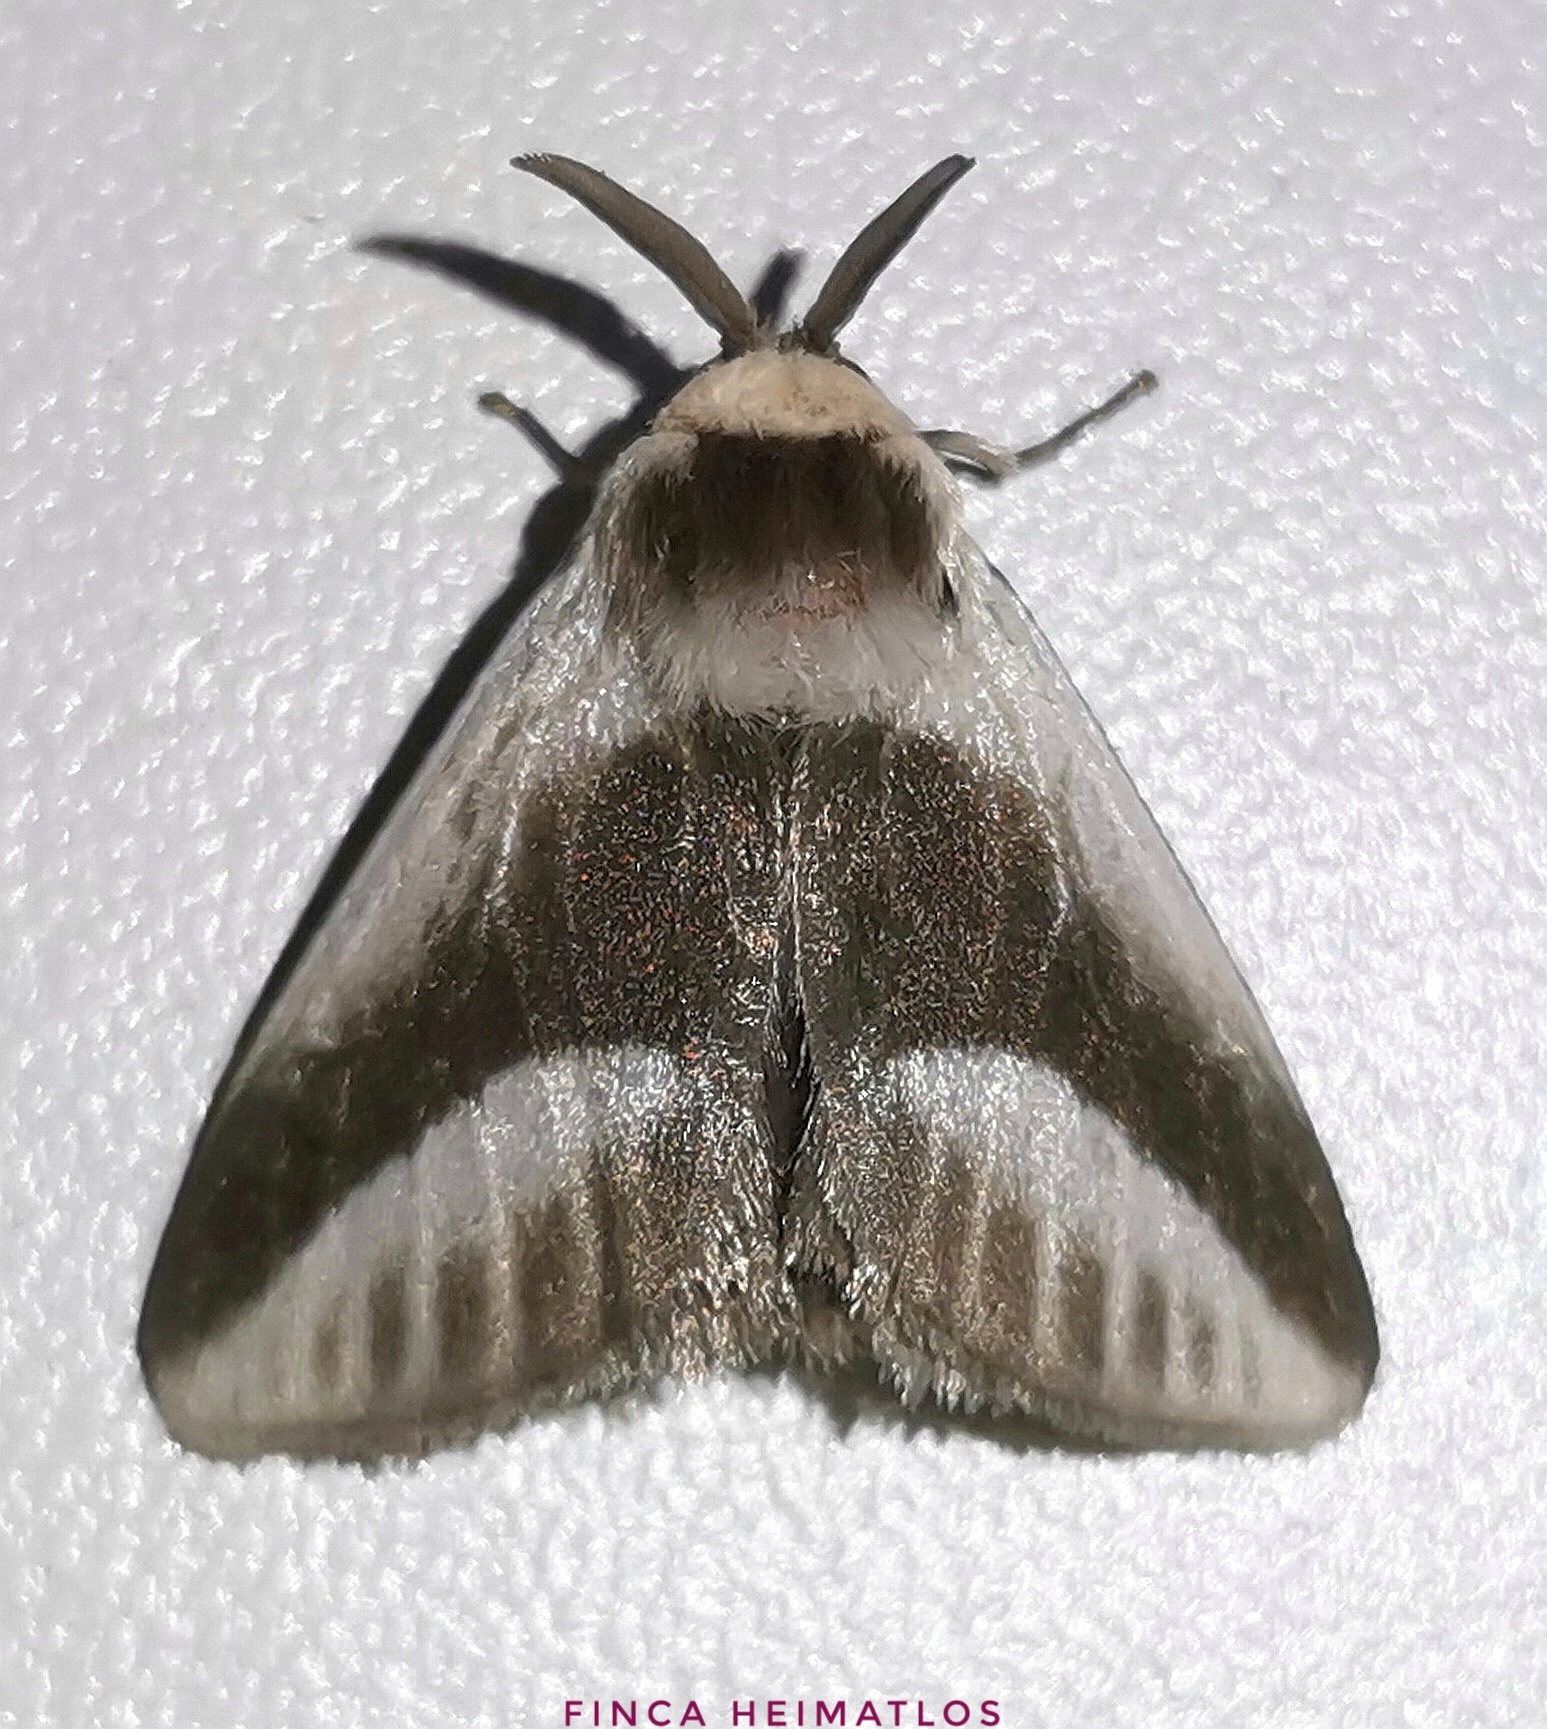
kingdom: Animalia
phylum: Arthropoda
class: Insecta
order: Lepidoptera
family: Megalopygidae
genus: Mesoscia
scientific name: Mesoscia dumilla
